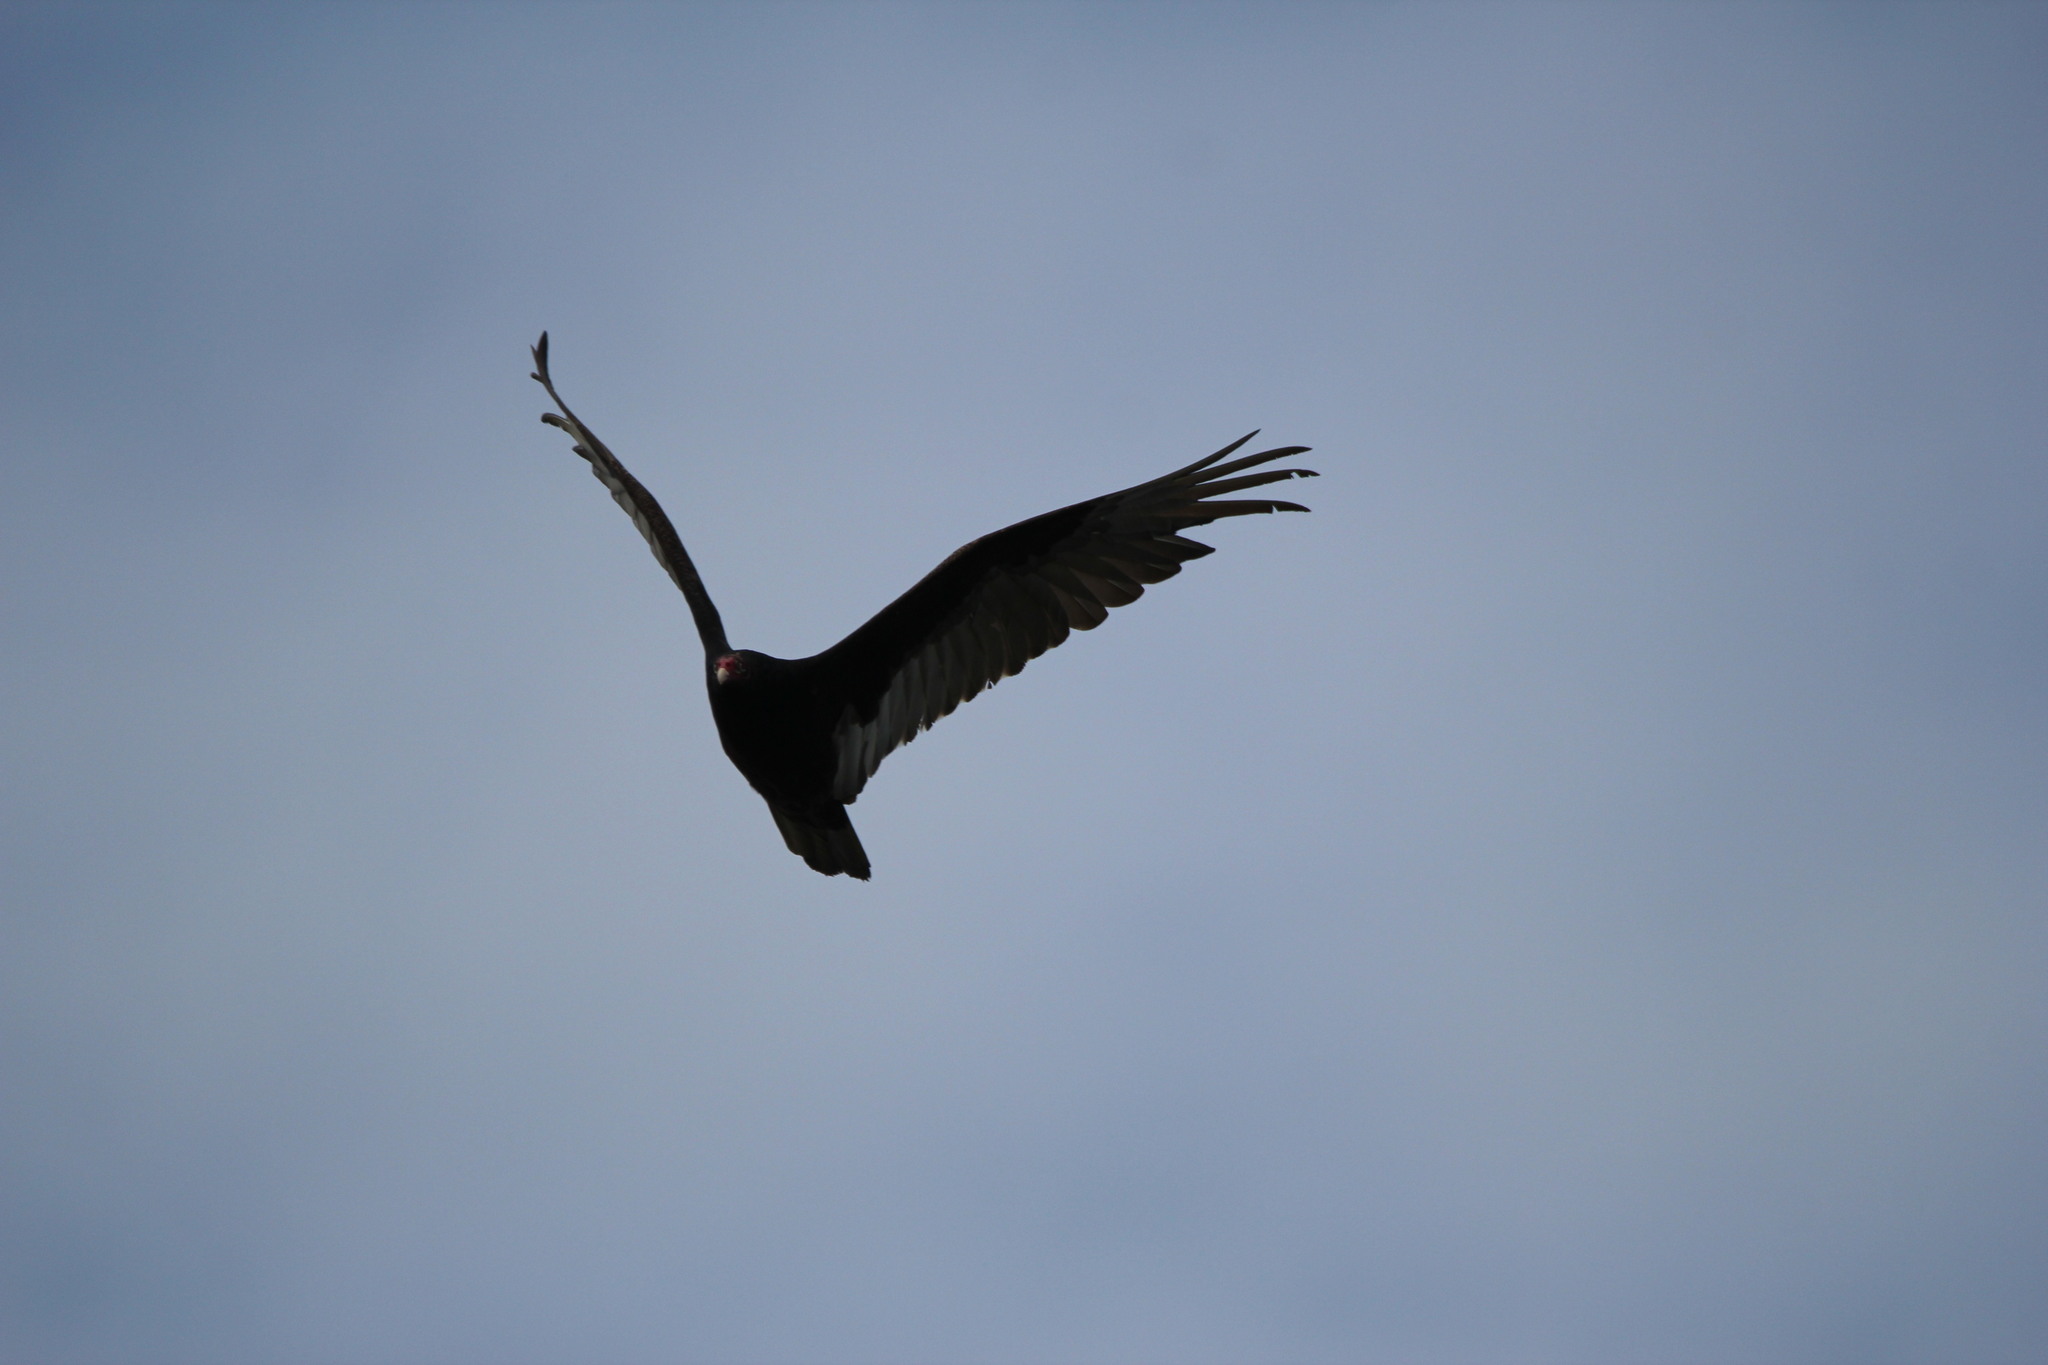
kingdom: Animalia
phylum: Chordata
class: Aves
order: Accipitriformes
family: Cathartidae
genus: Cathartes
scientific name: Cathartes aura
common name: Turkey vulture
